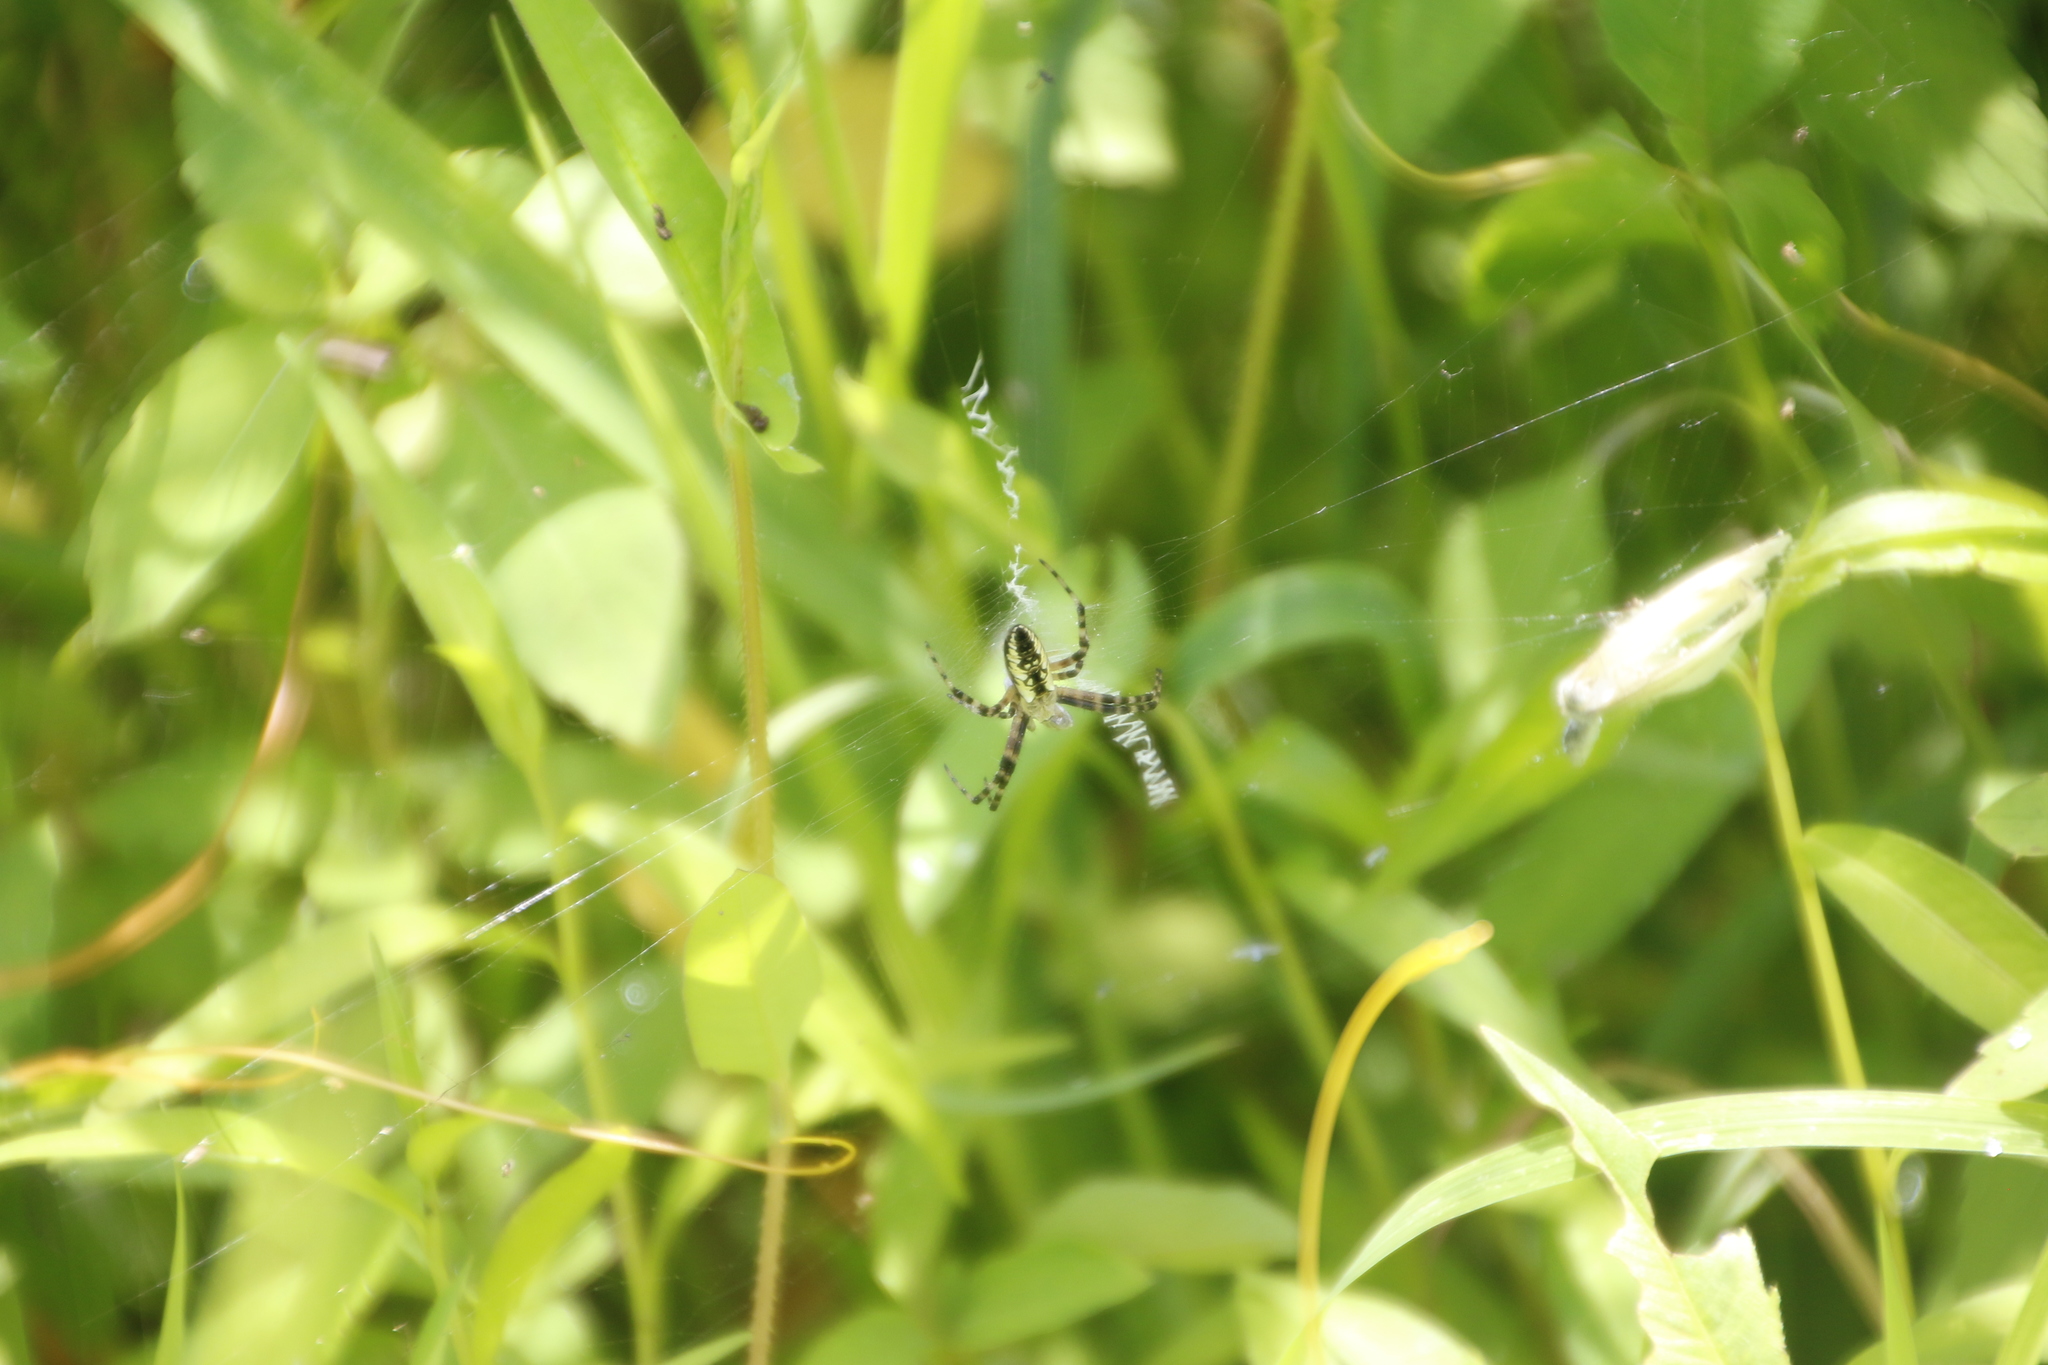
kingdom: Animalia
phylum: Arthropoda
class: Arachnida
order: Araneae
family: Araneidae
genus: Argiope
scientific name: Argiope aurantia
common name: Orb weavers
